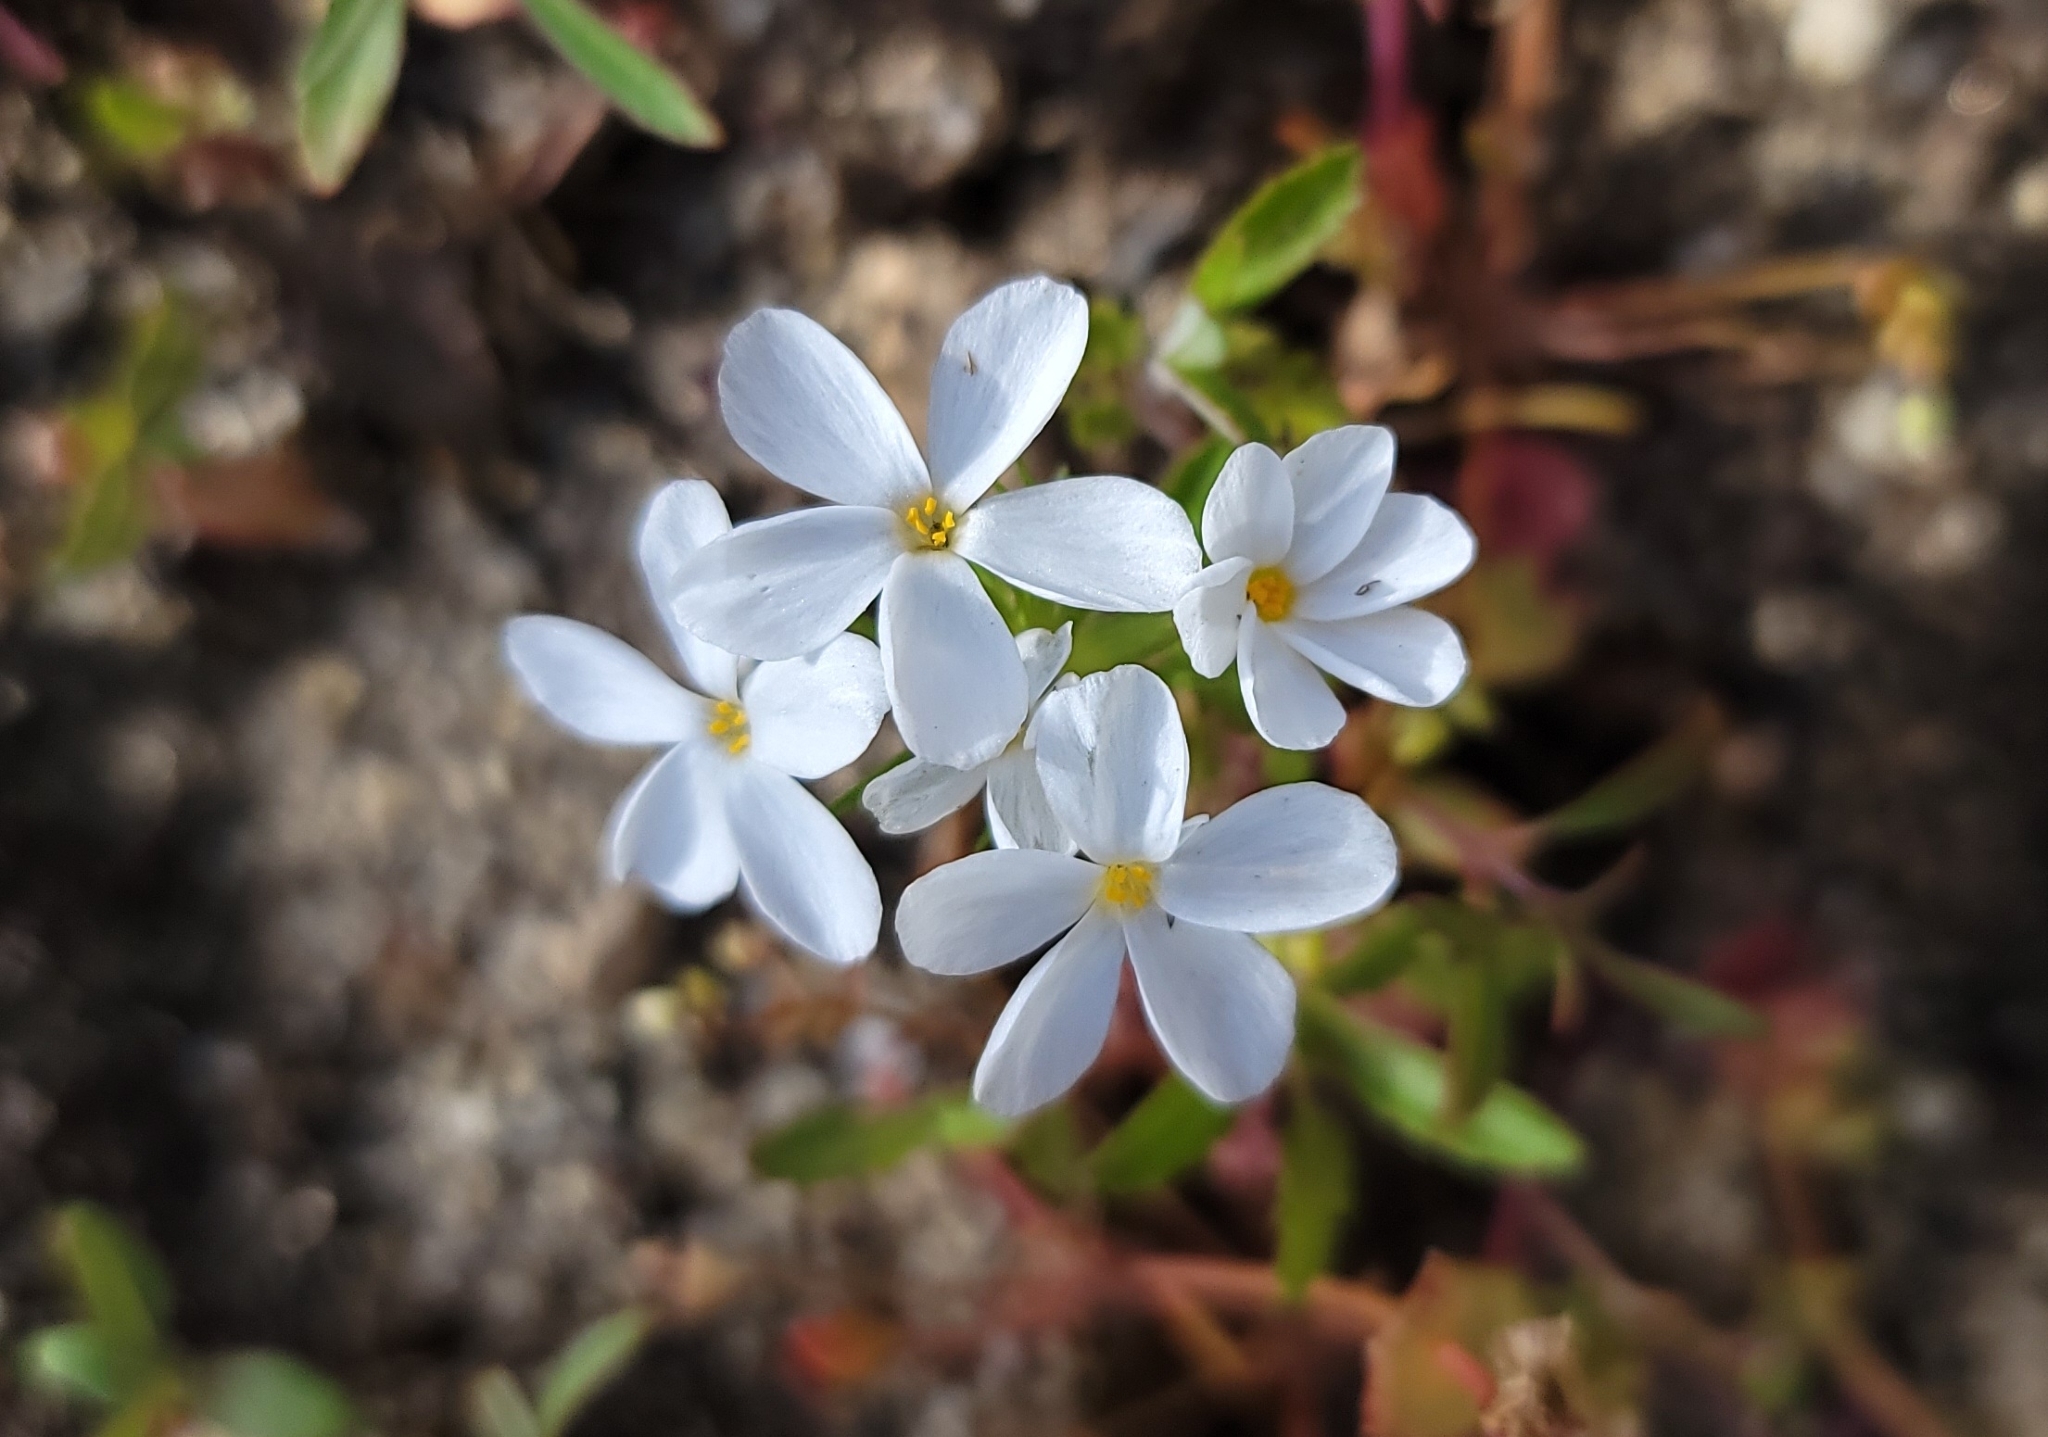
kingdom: Plantae
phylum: Tracheophyta
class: Magnoliopsida
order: Ericales
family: Polemoniaceae
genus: Leptosiphon
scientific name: Leptosiphon serrulatus
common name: Madera linanthus
